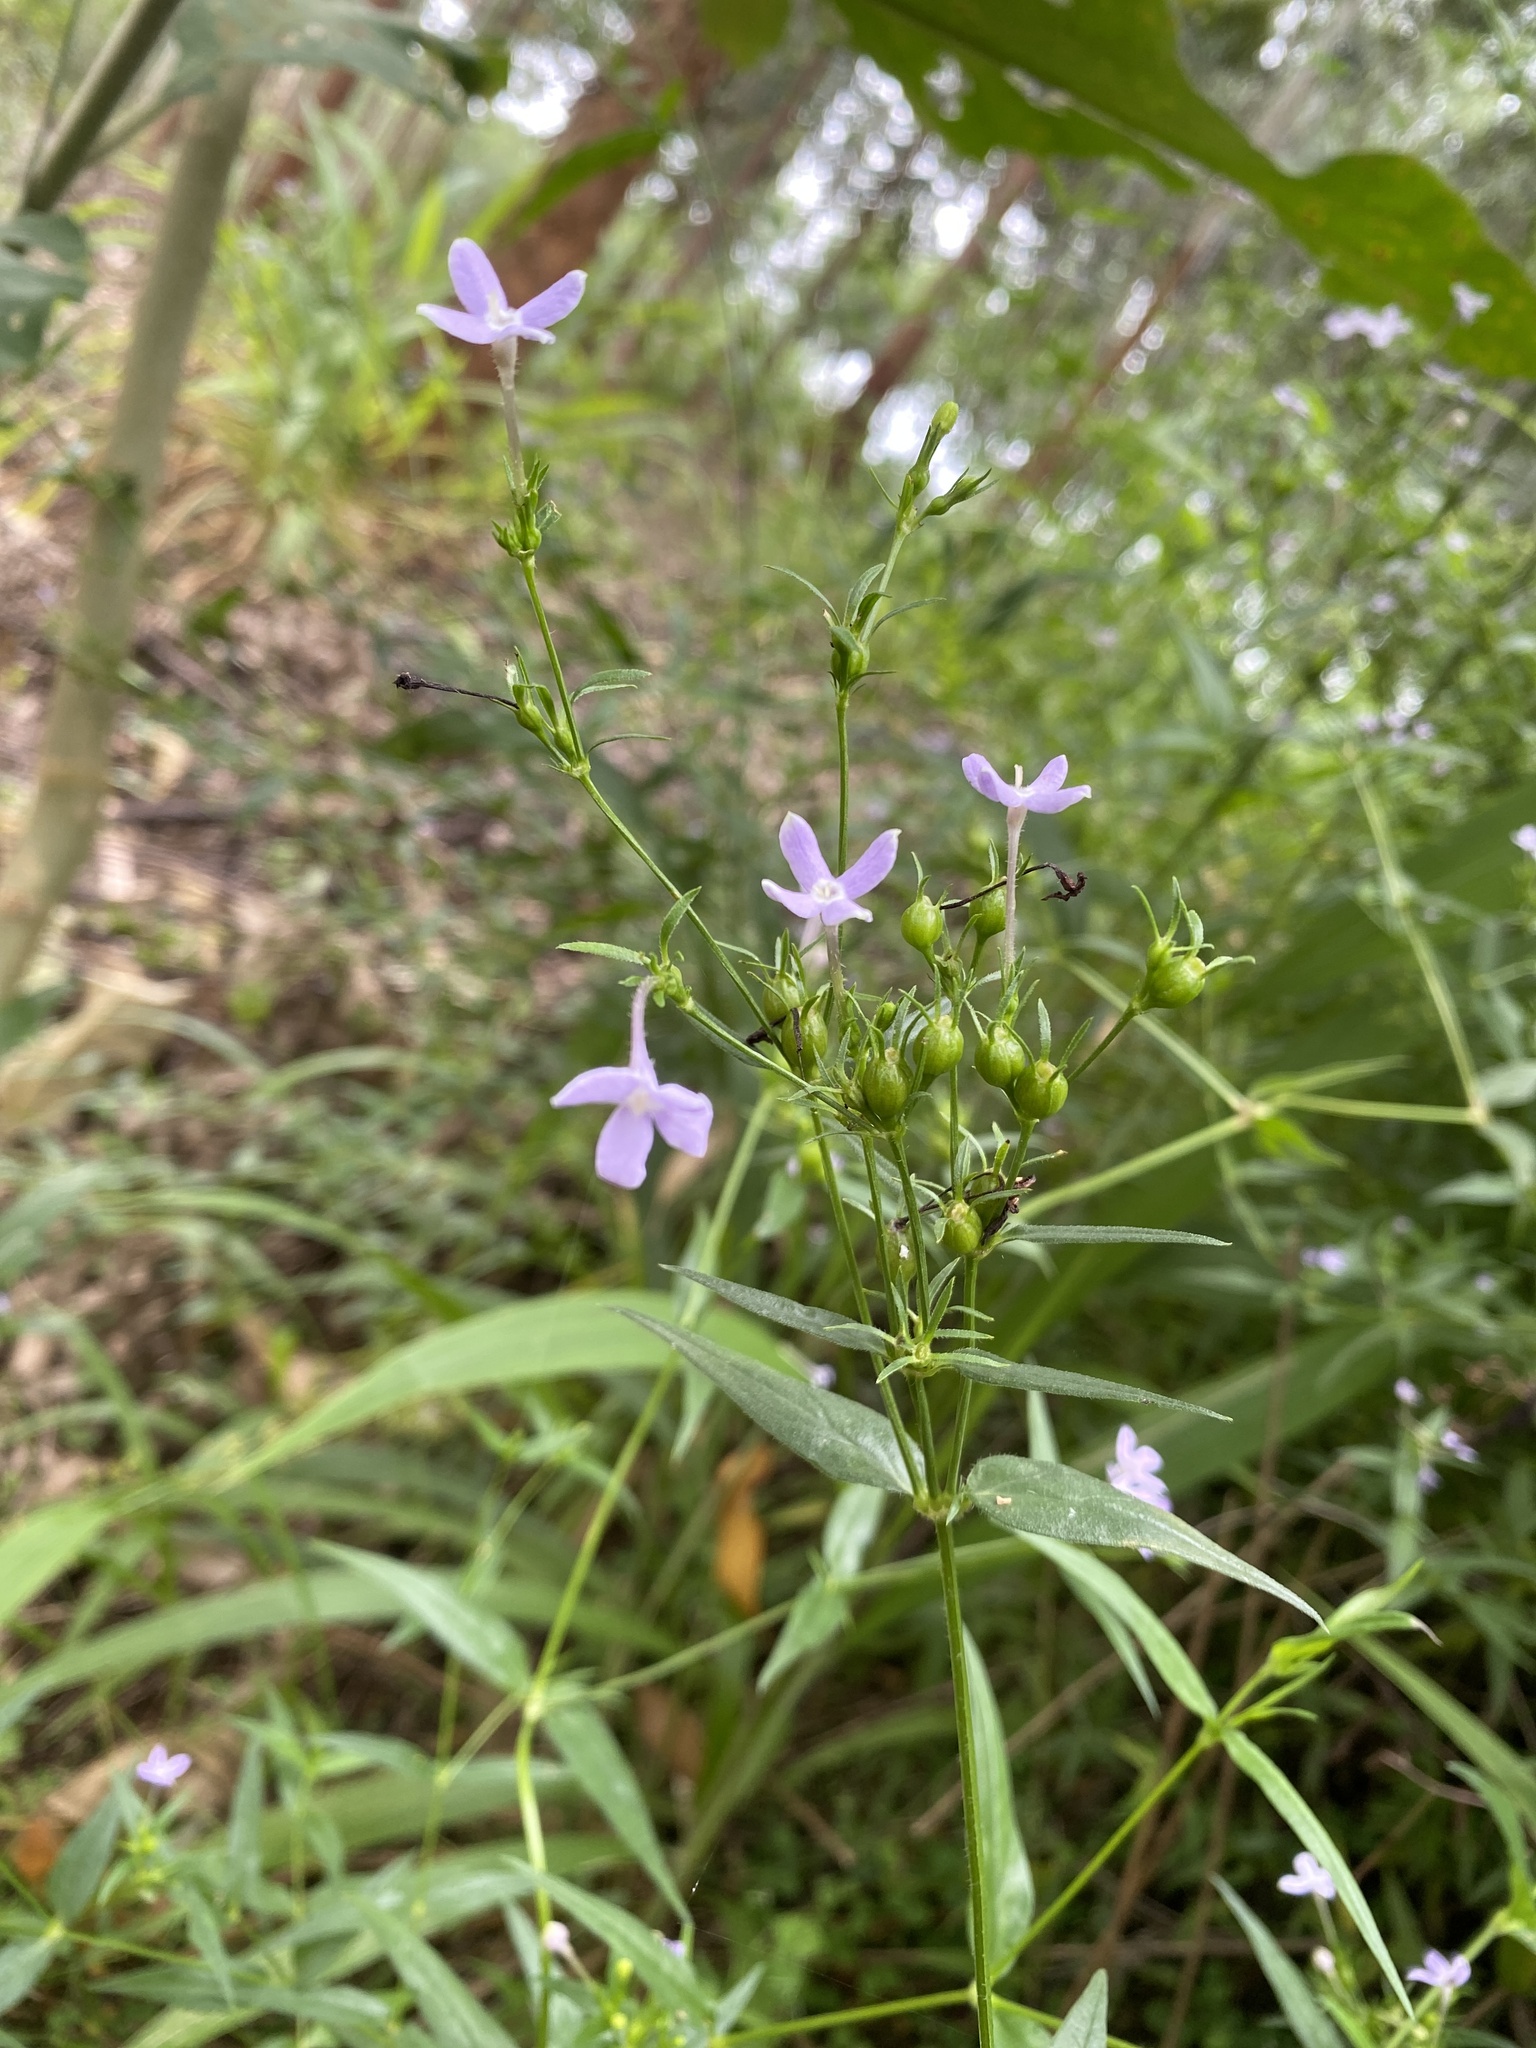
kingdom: Plantae
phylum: Tracheophyta
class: Magnoliopsida
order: Gentianales
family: Rubiaceae
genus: Conostomium
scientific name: Conostomium natalense
